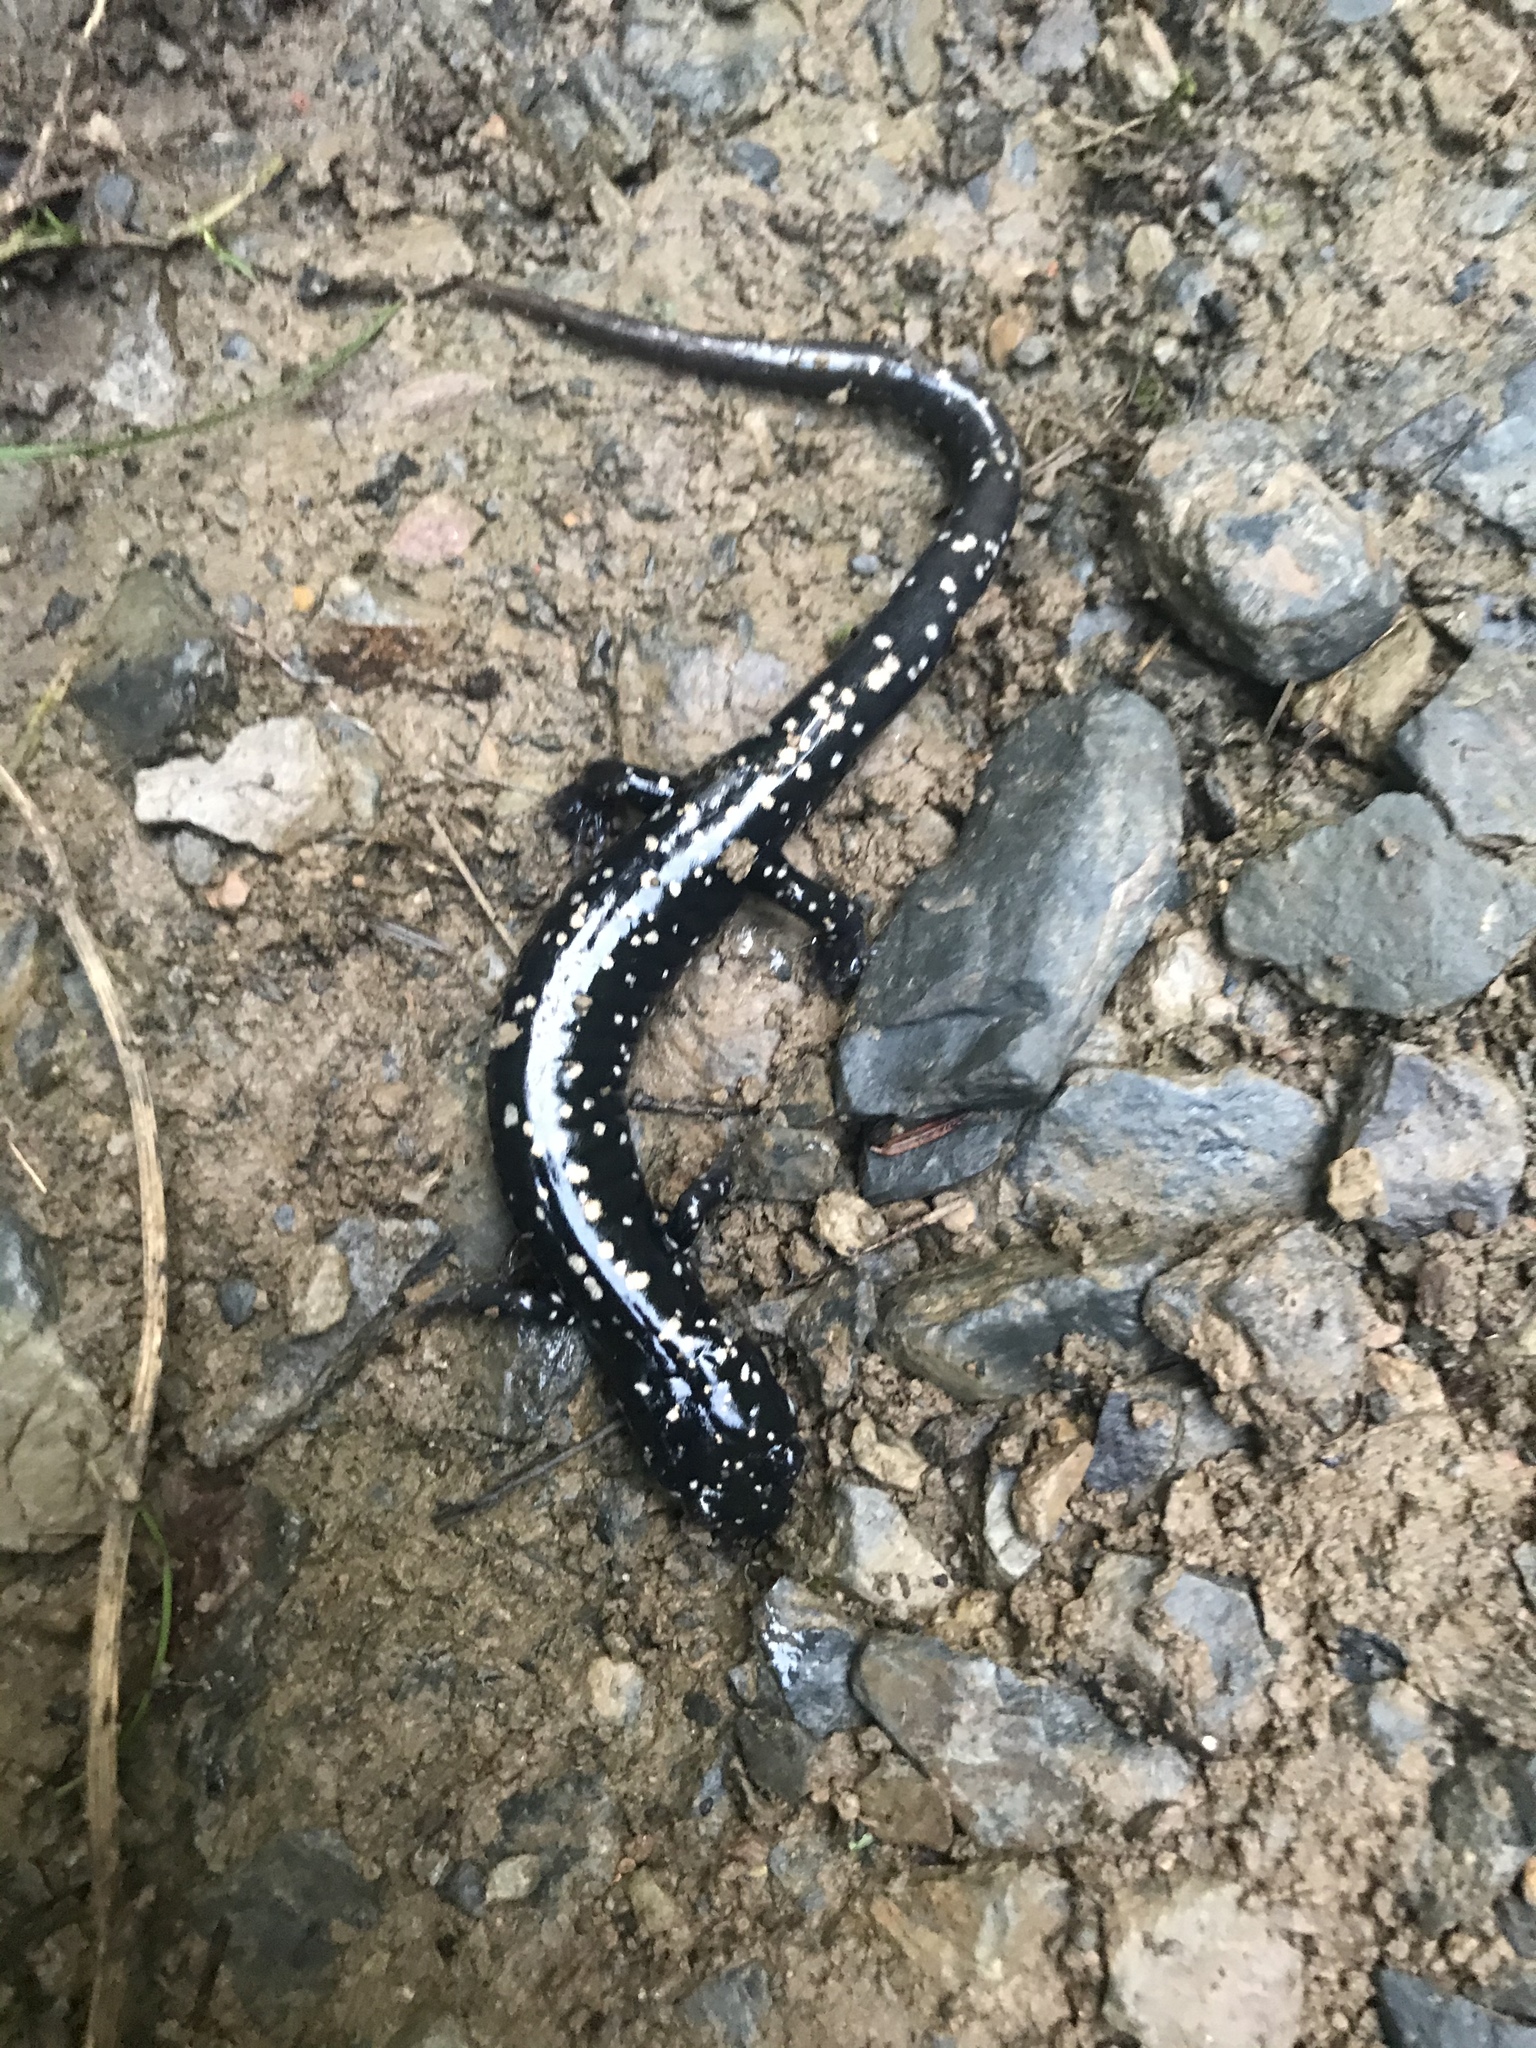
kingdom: Animalia
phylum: Chordata
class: Amphibia
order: Caudata
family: Plethodontidae
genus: Plethodon
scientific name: Plethodon glutinosus
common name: Northern slimy salamander
